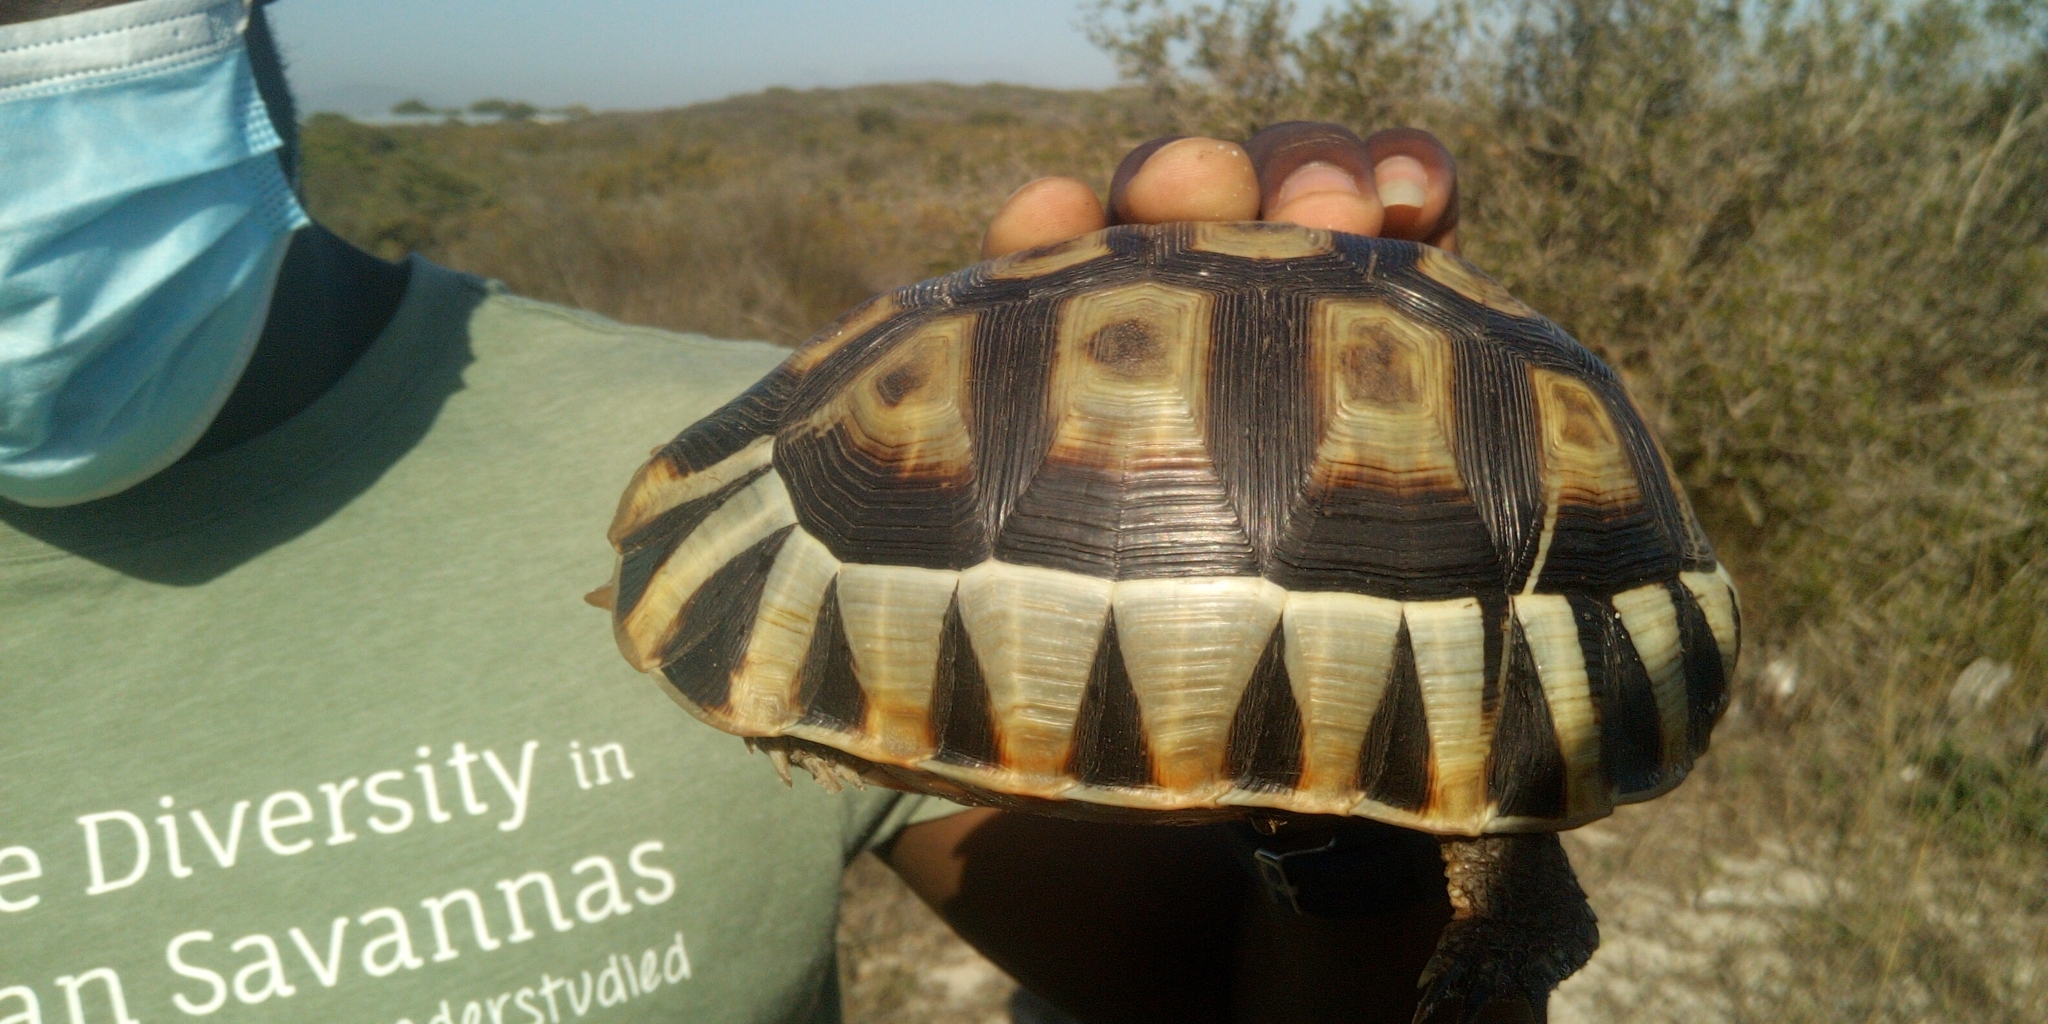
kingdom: Animalia
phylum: Chordata
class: Testudines
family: Testudinidae
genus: Chersina
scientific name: Chersina angulata
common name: South african bowsprit tortoise
